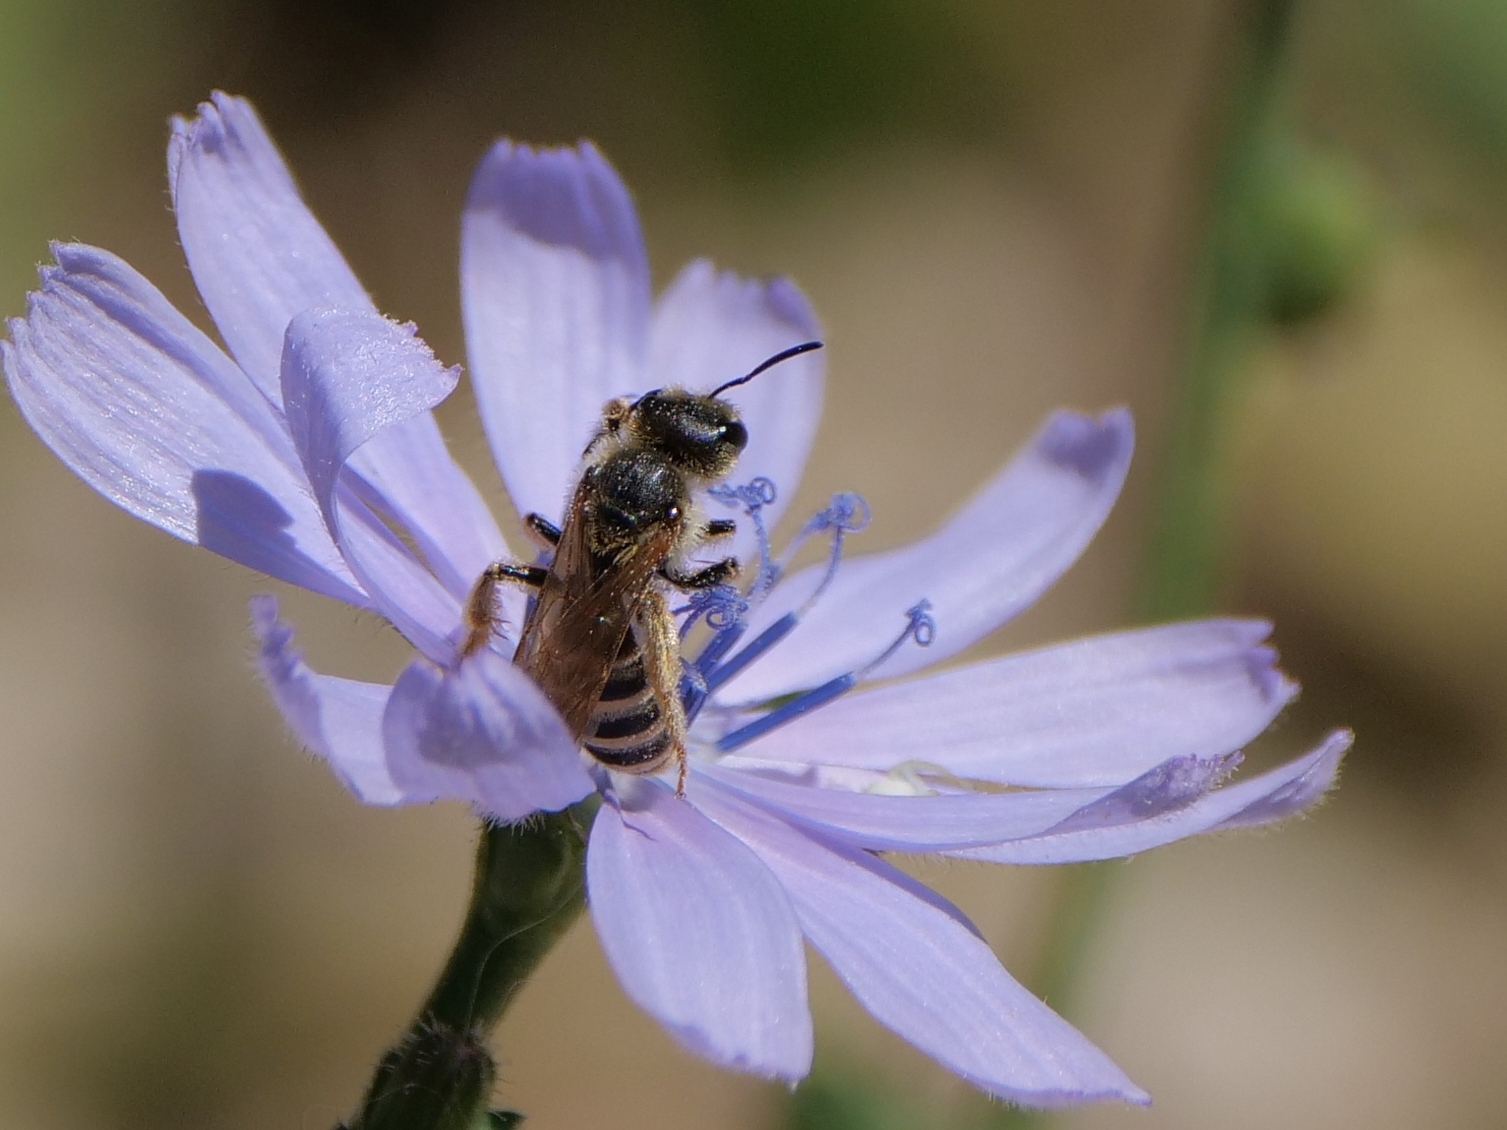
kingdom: Animalia
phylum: Arthropoda
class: Insecta
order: Hymenoptera
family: Halictidae
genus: Halictus
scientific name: Halictus scabiosae
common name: Great banded furrow bee
